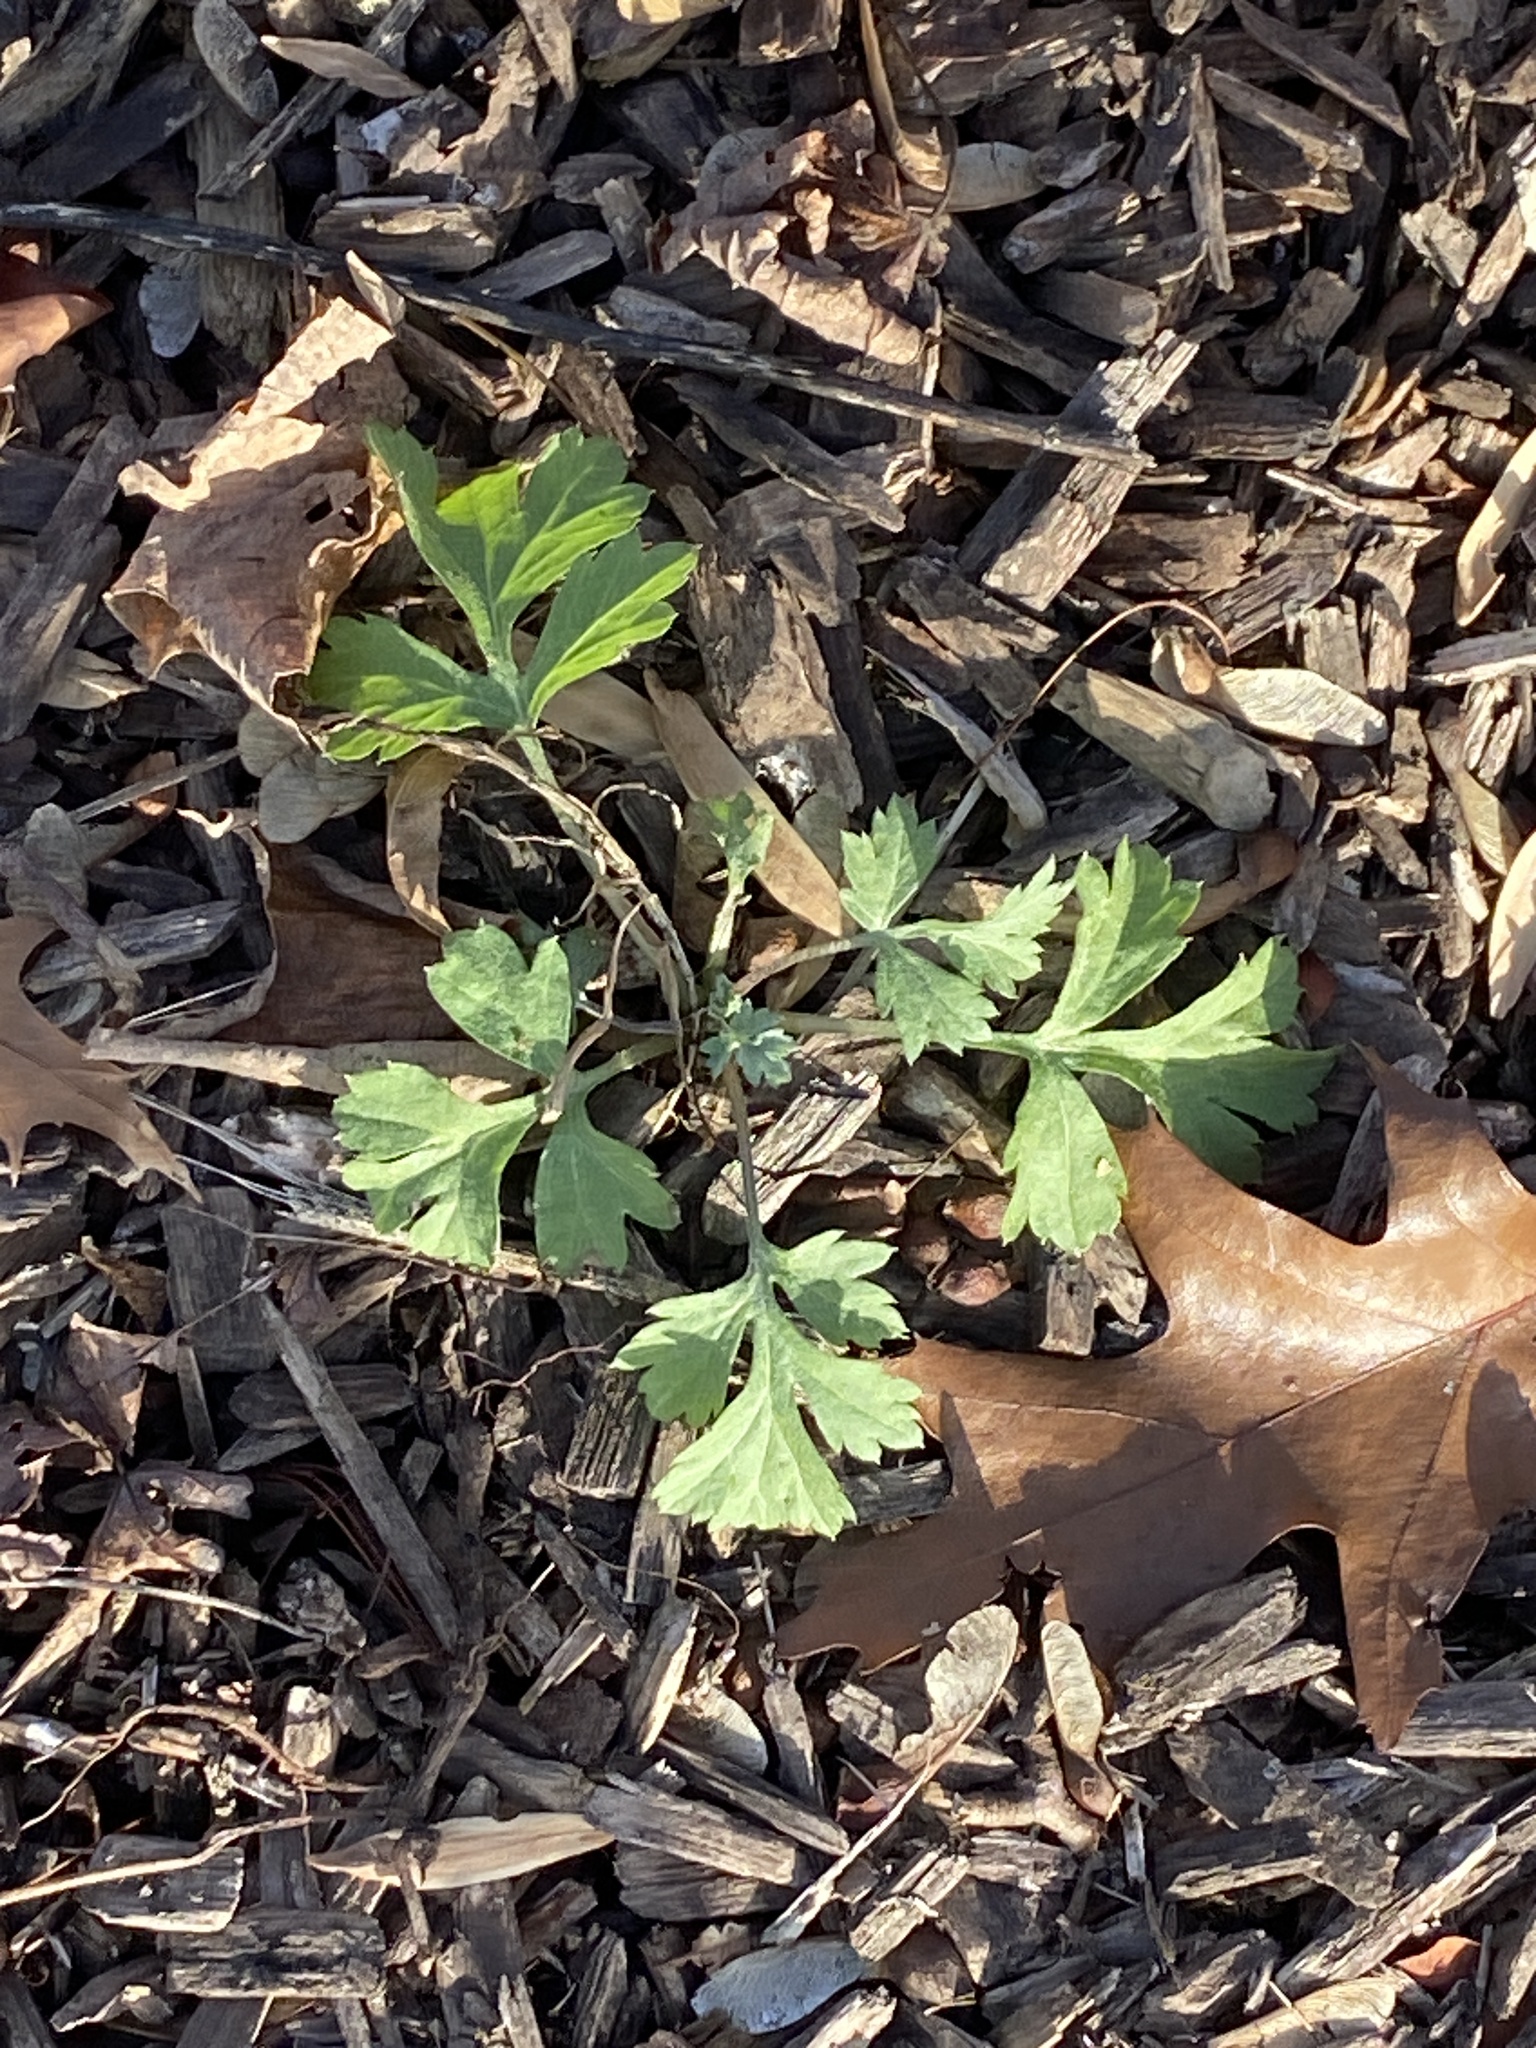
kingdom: Plantae
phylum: Tracheophyta
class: Magnoliopsida
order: Asterales
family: Asteraceae
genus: Artemisia
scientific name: Artemisia vulgaris
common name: Mugwort
